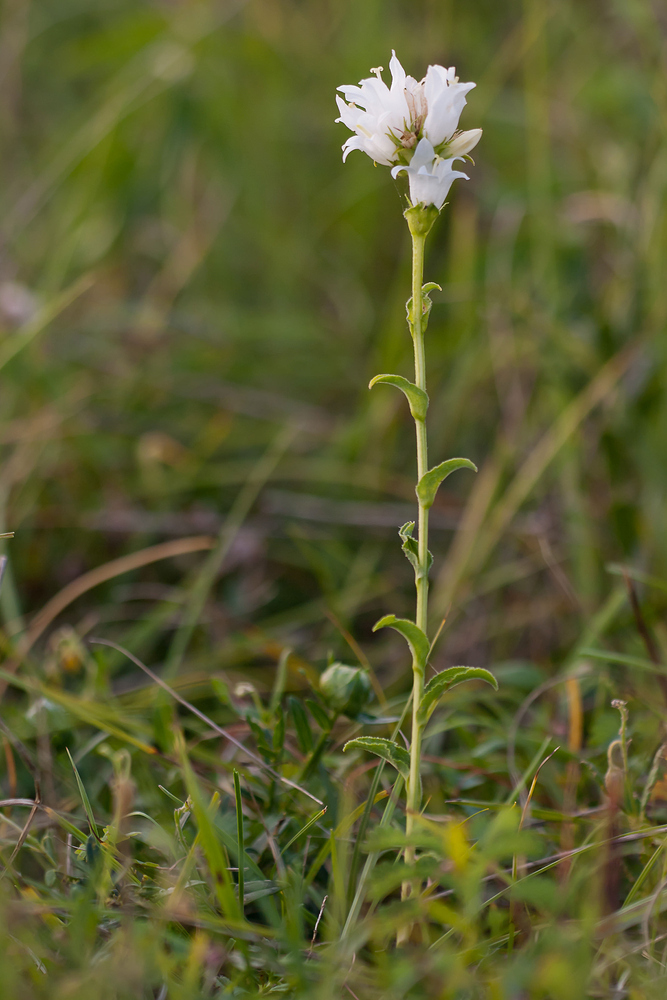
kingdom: Plantae
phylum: Tracheophyta
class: Magnoliopsida
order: Asterales
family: Campanulaceae
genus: Campanula
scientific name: Campanula glomerata
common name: Clustered bellflower
